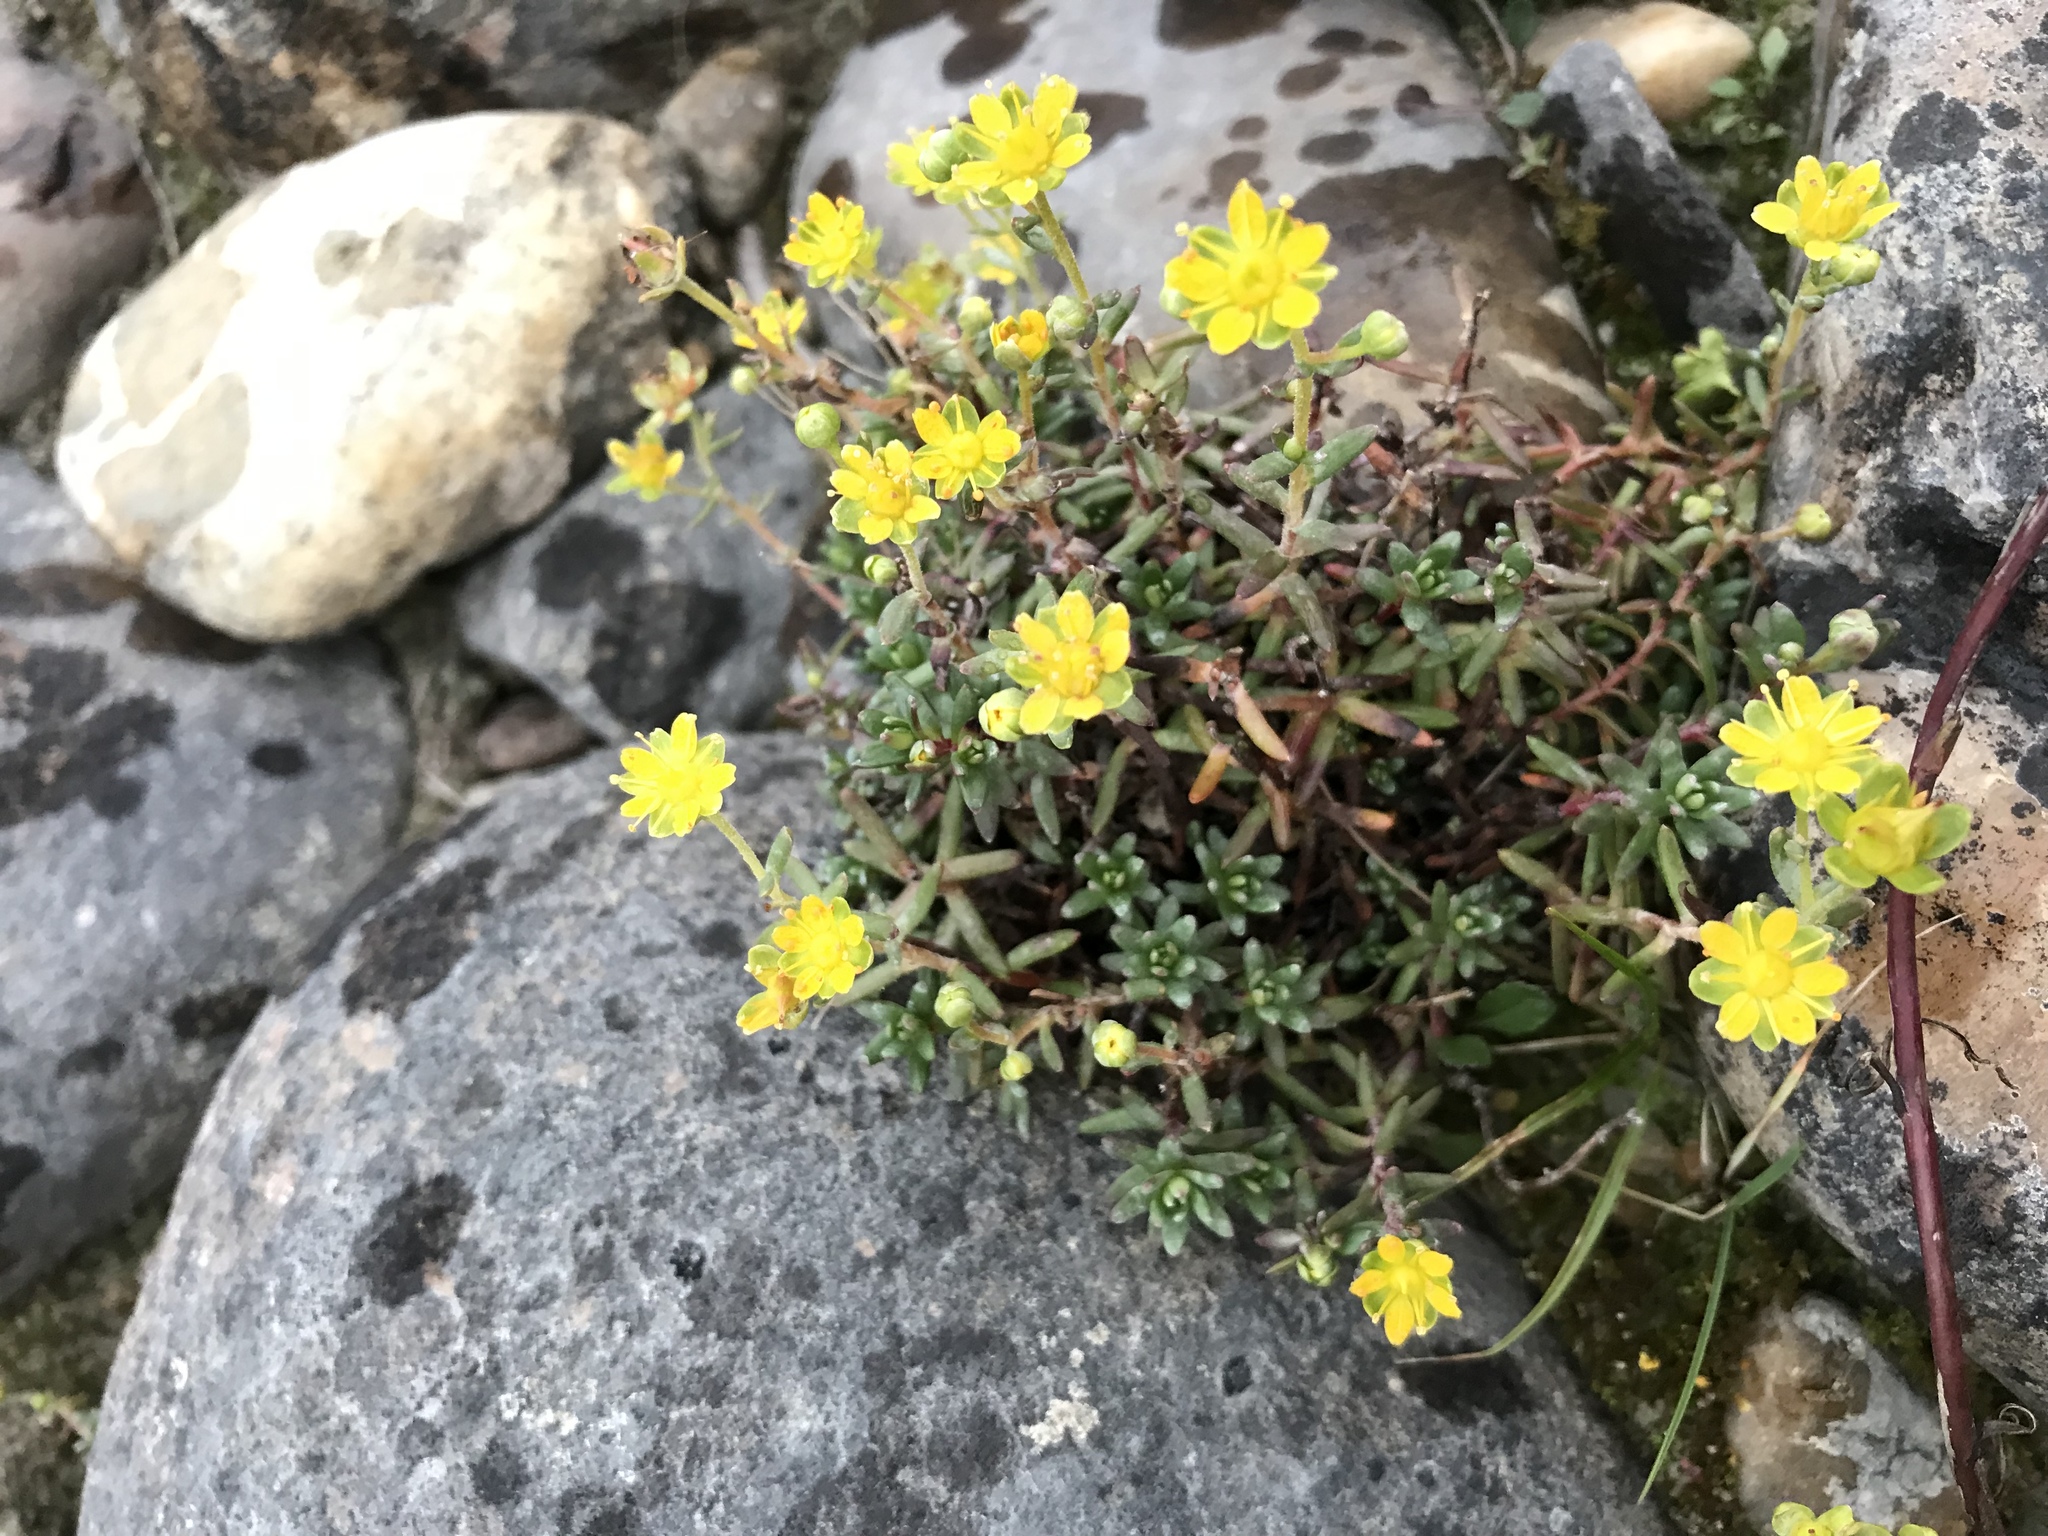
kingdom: Plantae
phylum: Tracheophyta
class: Magnoliopsida
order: Saxifragales
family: Saxifragaceae
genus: Saxifraga
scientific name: Saxifraga aizoides
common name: Yellow mountain saxifrage
